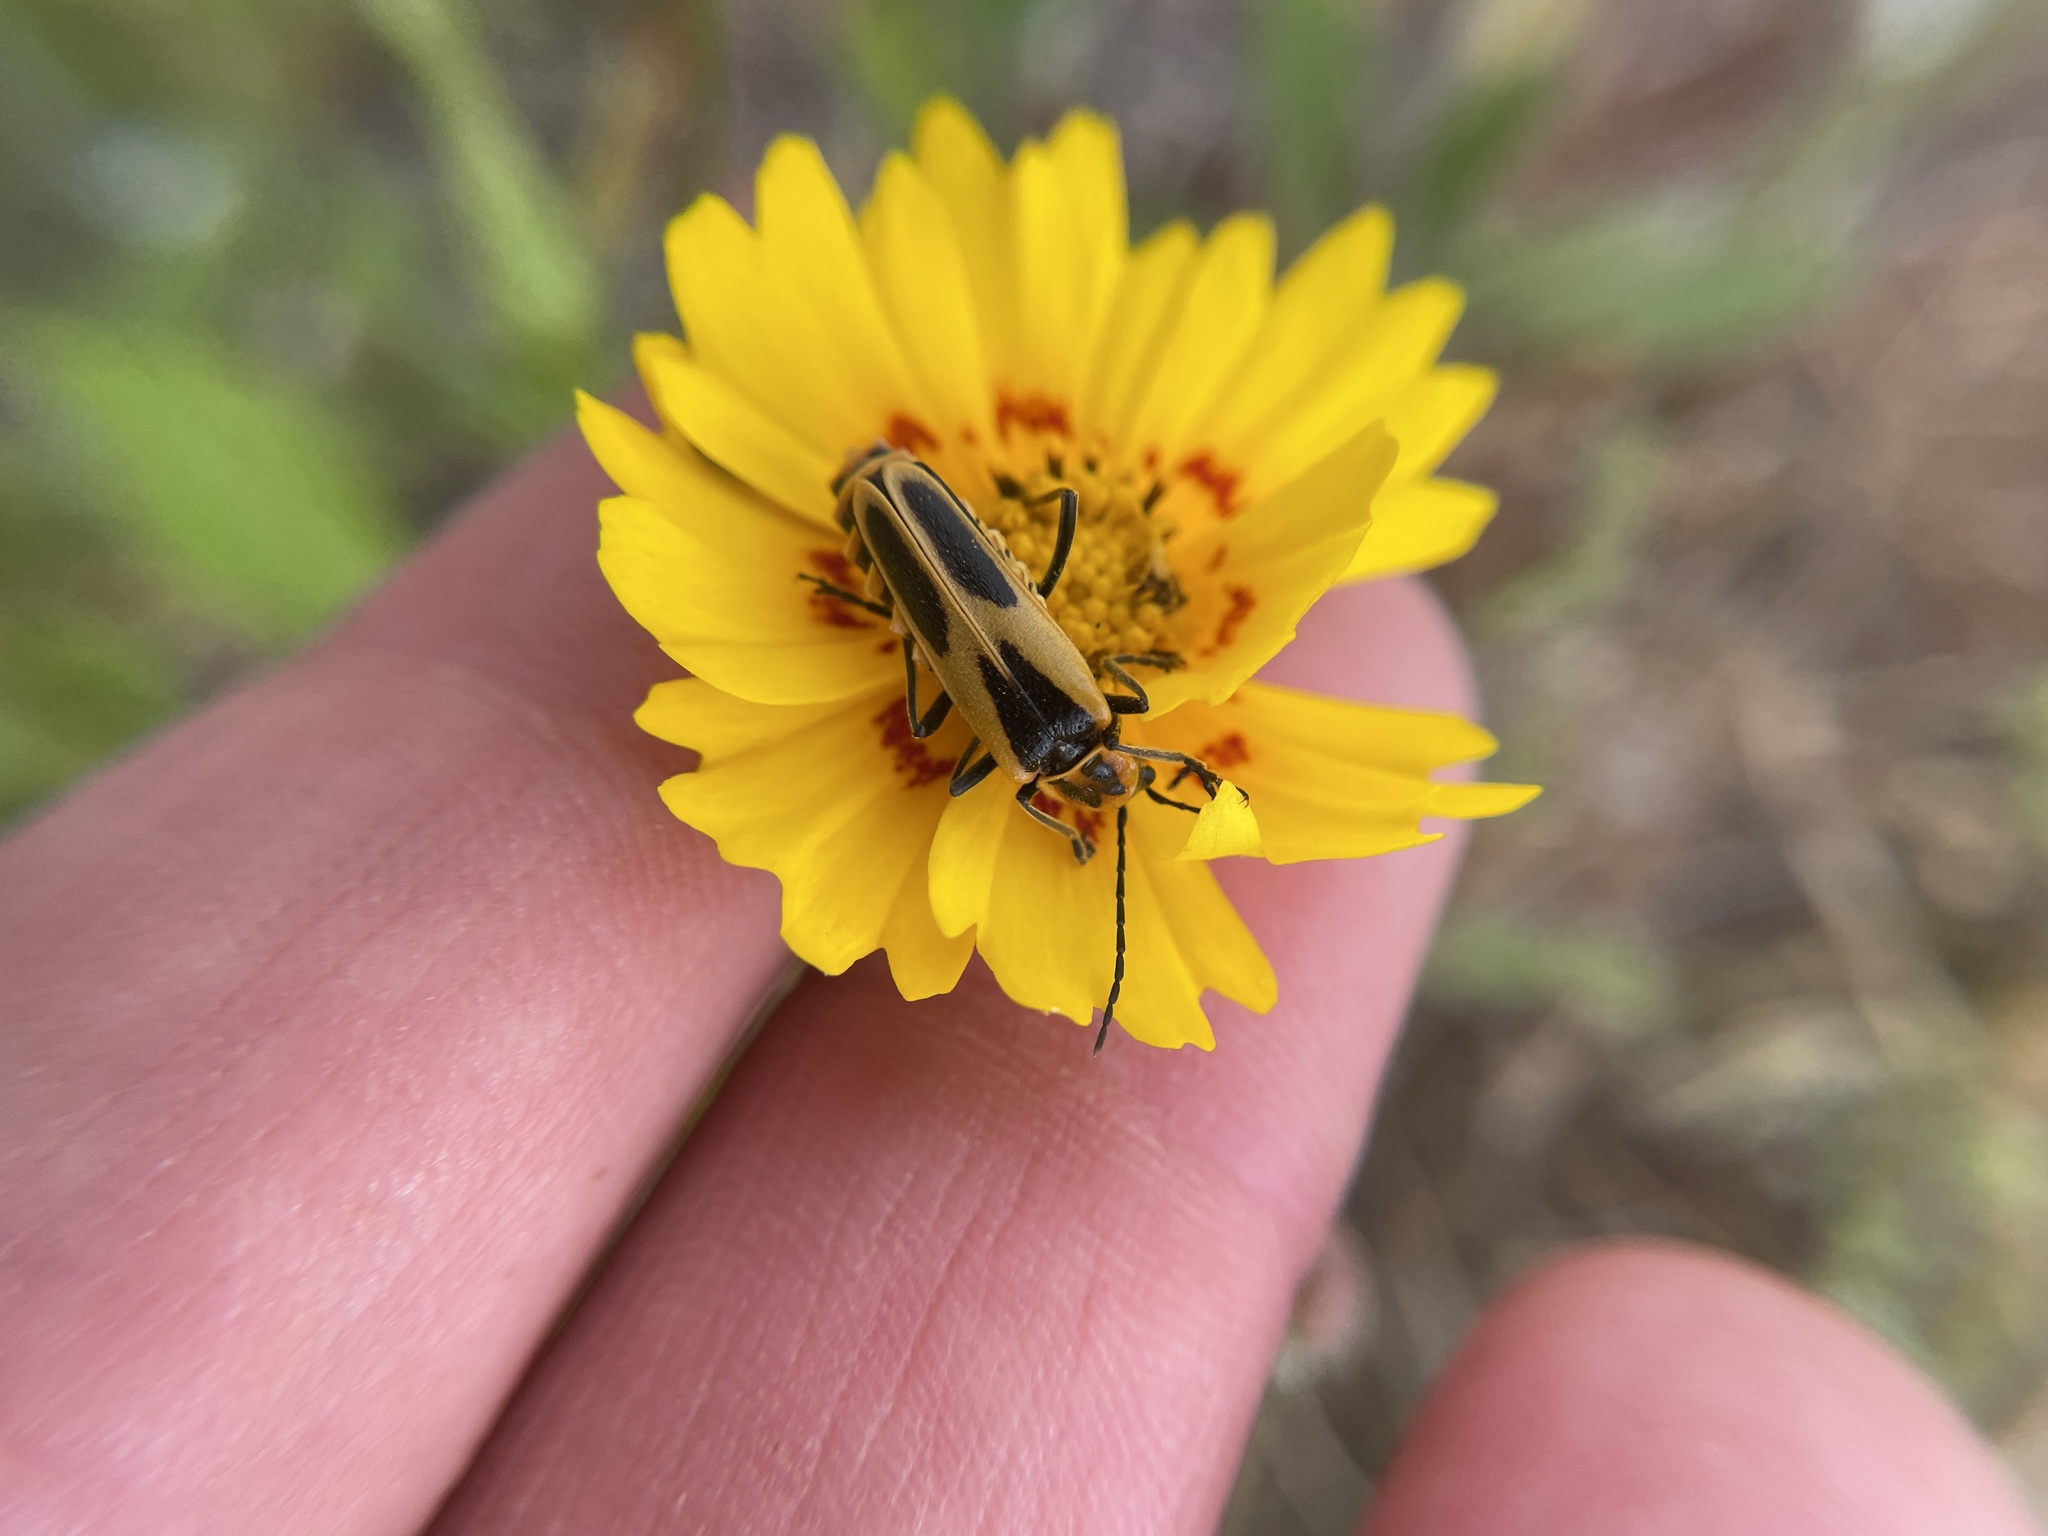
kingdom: Animalia
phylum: Arthropoda
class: Insecta
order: Coleoptera
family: Cantharidae
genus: Chauliognathus
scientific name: Chauliognathus scutellaris
